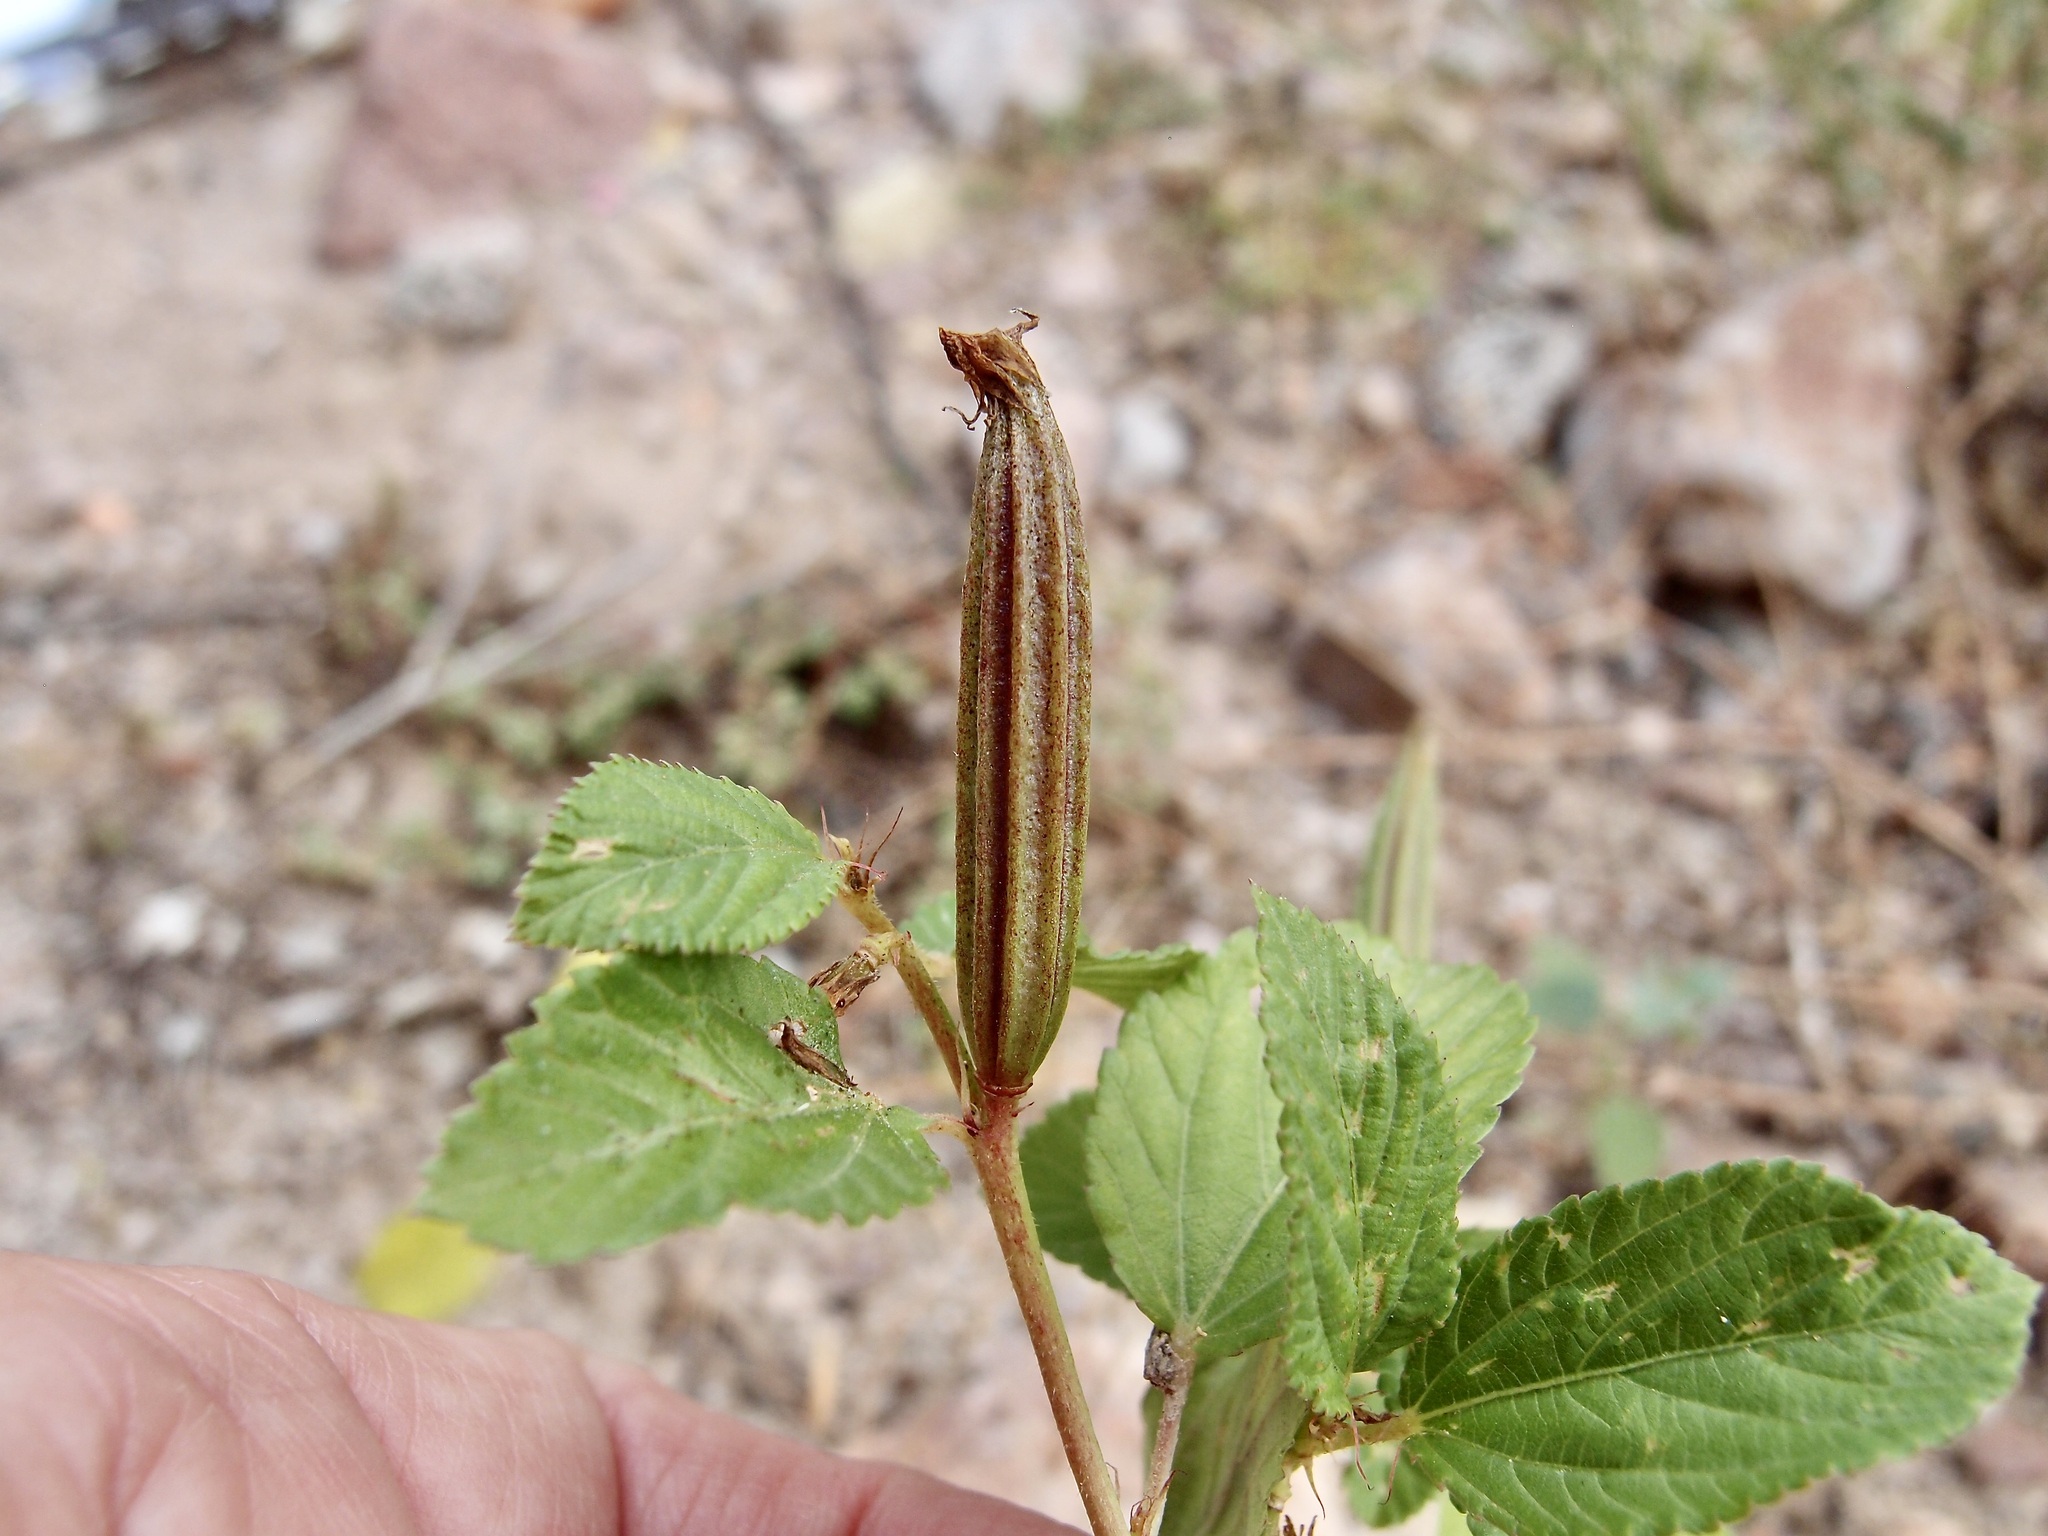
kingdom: Plantae
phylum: Tracheophyta
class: Magnoliopsida
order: Malvales
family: Malvaceae
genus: Corchorus
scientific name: Corchorus olitorius
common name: Tossa jute
